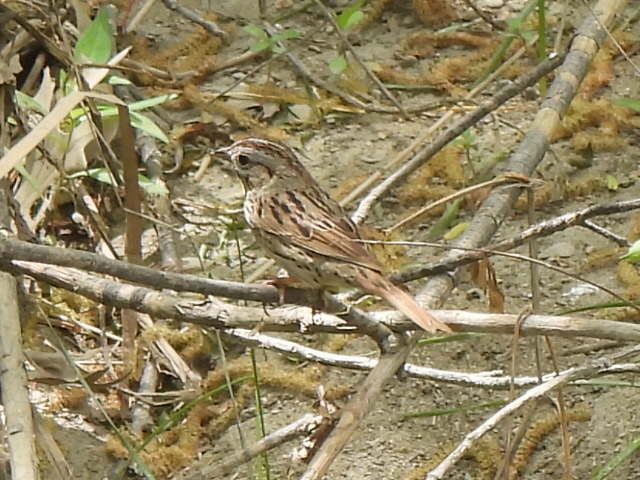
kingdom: Animalia
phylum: Chordata
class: Aves
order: Passeriformes
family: Passerellidae
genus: Melospiza
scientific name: Melospiza lincolnii
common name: Lincoln's sparrow
